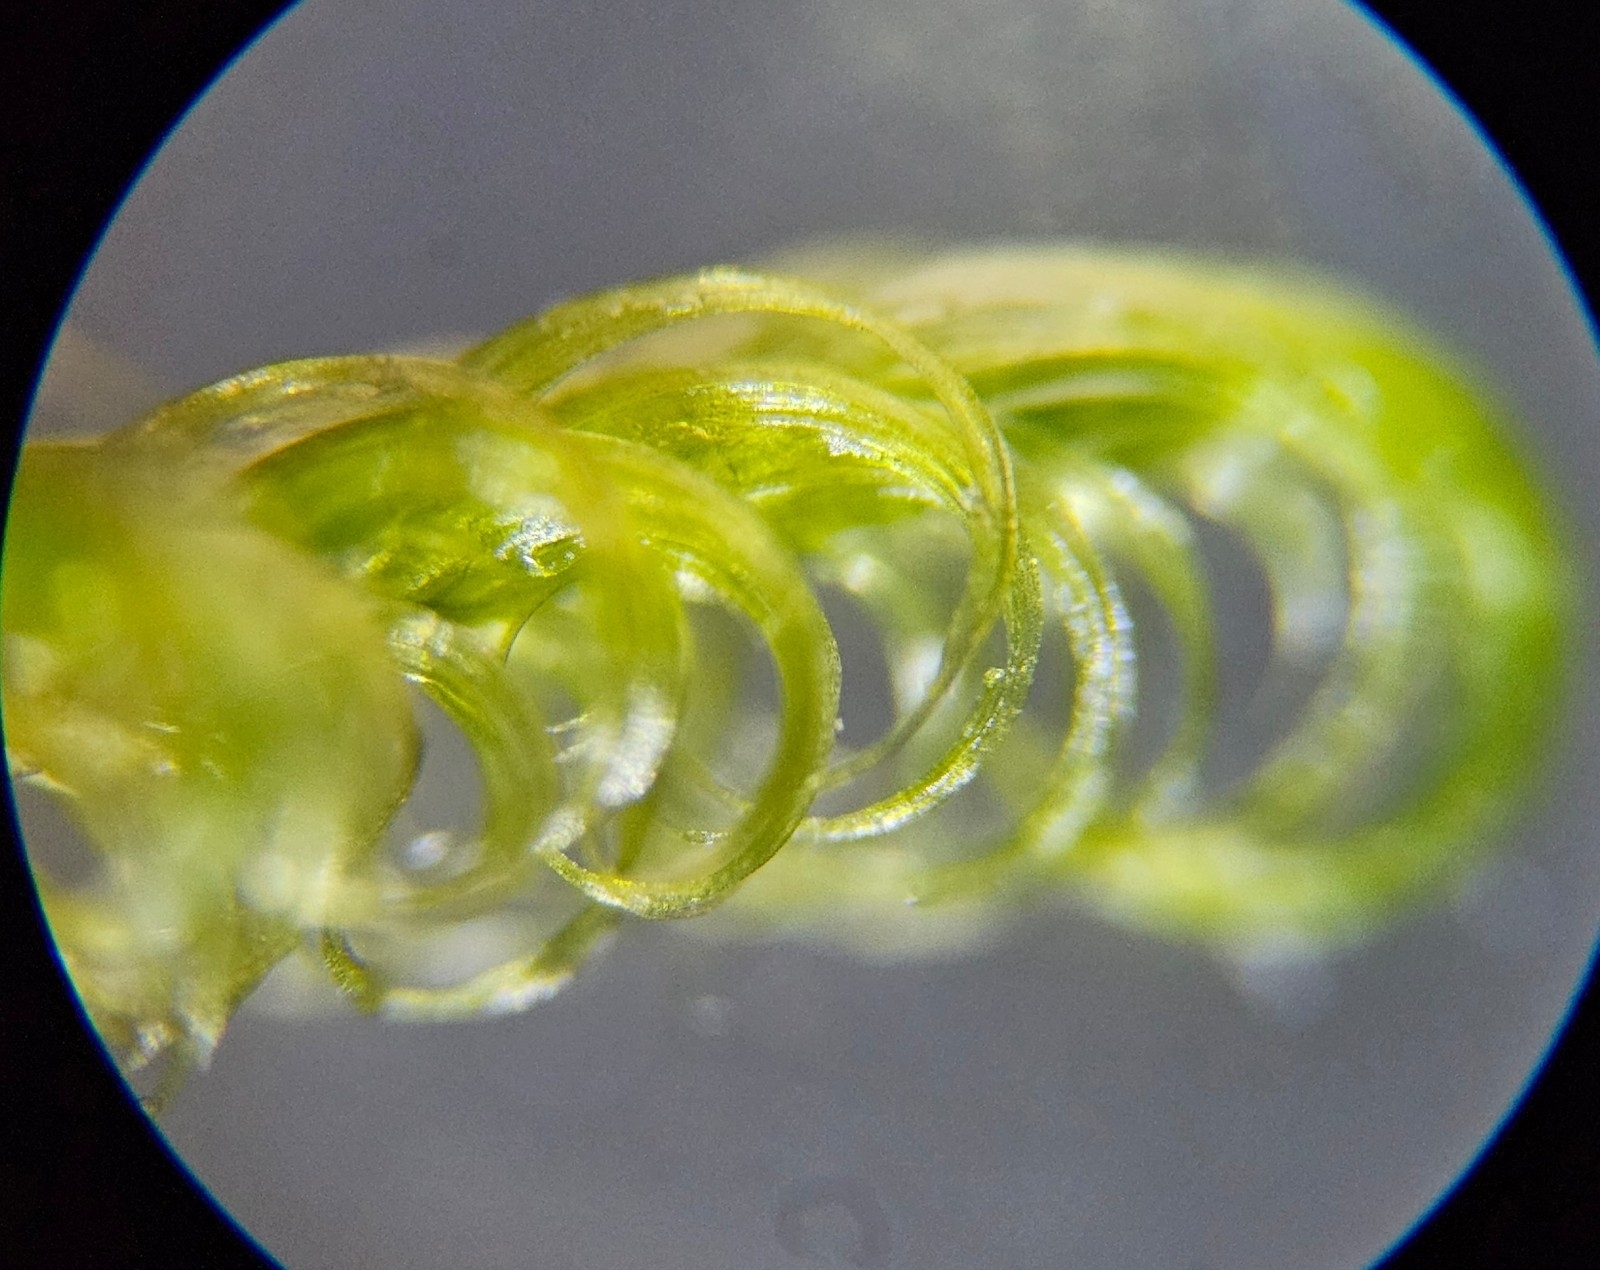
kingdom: Plantae
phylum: Bryophyta
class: Bryopsida
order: Hypnales
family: Scorpidiaceae
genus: Sanionia
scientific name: Sanionia uncinata
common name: Sickle moss
